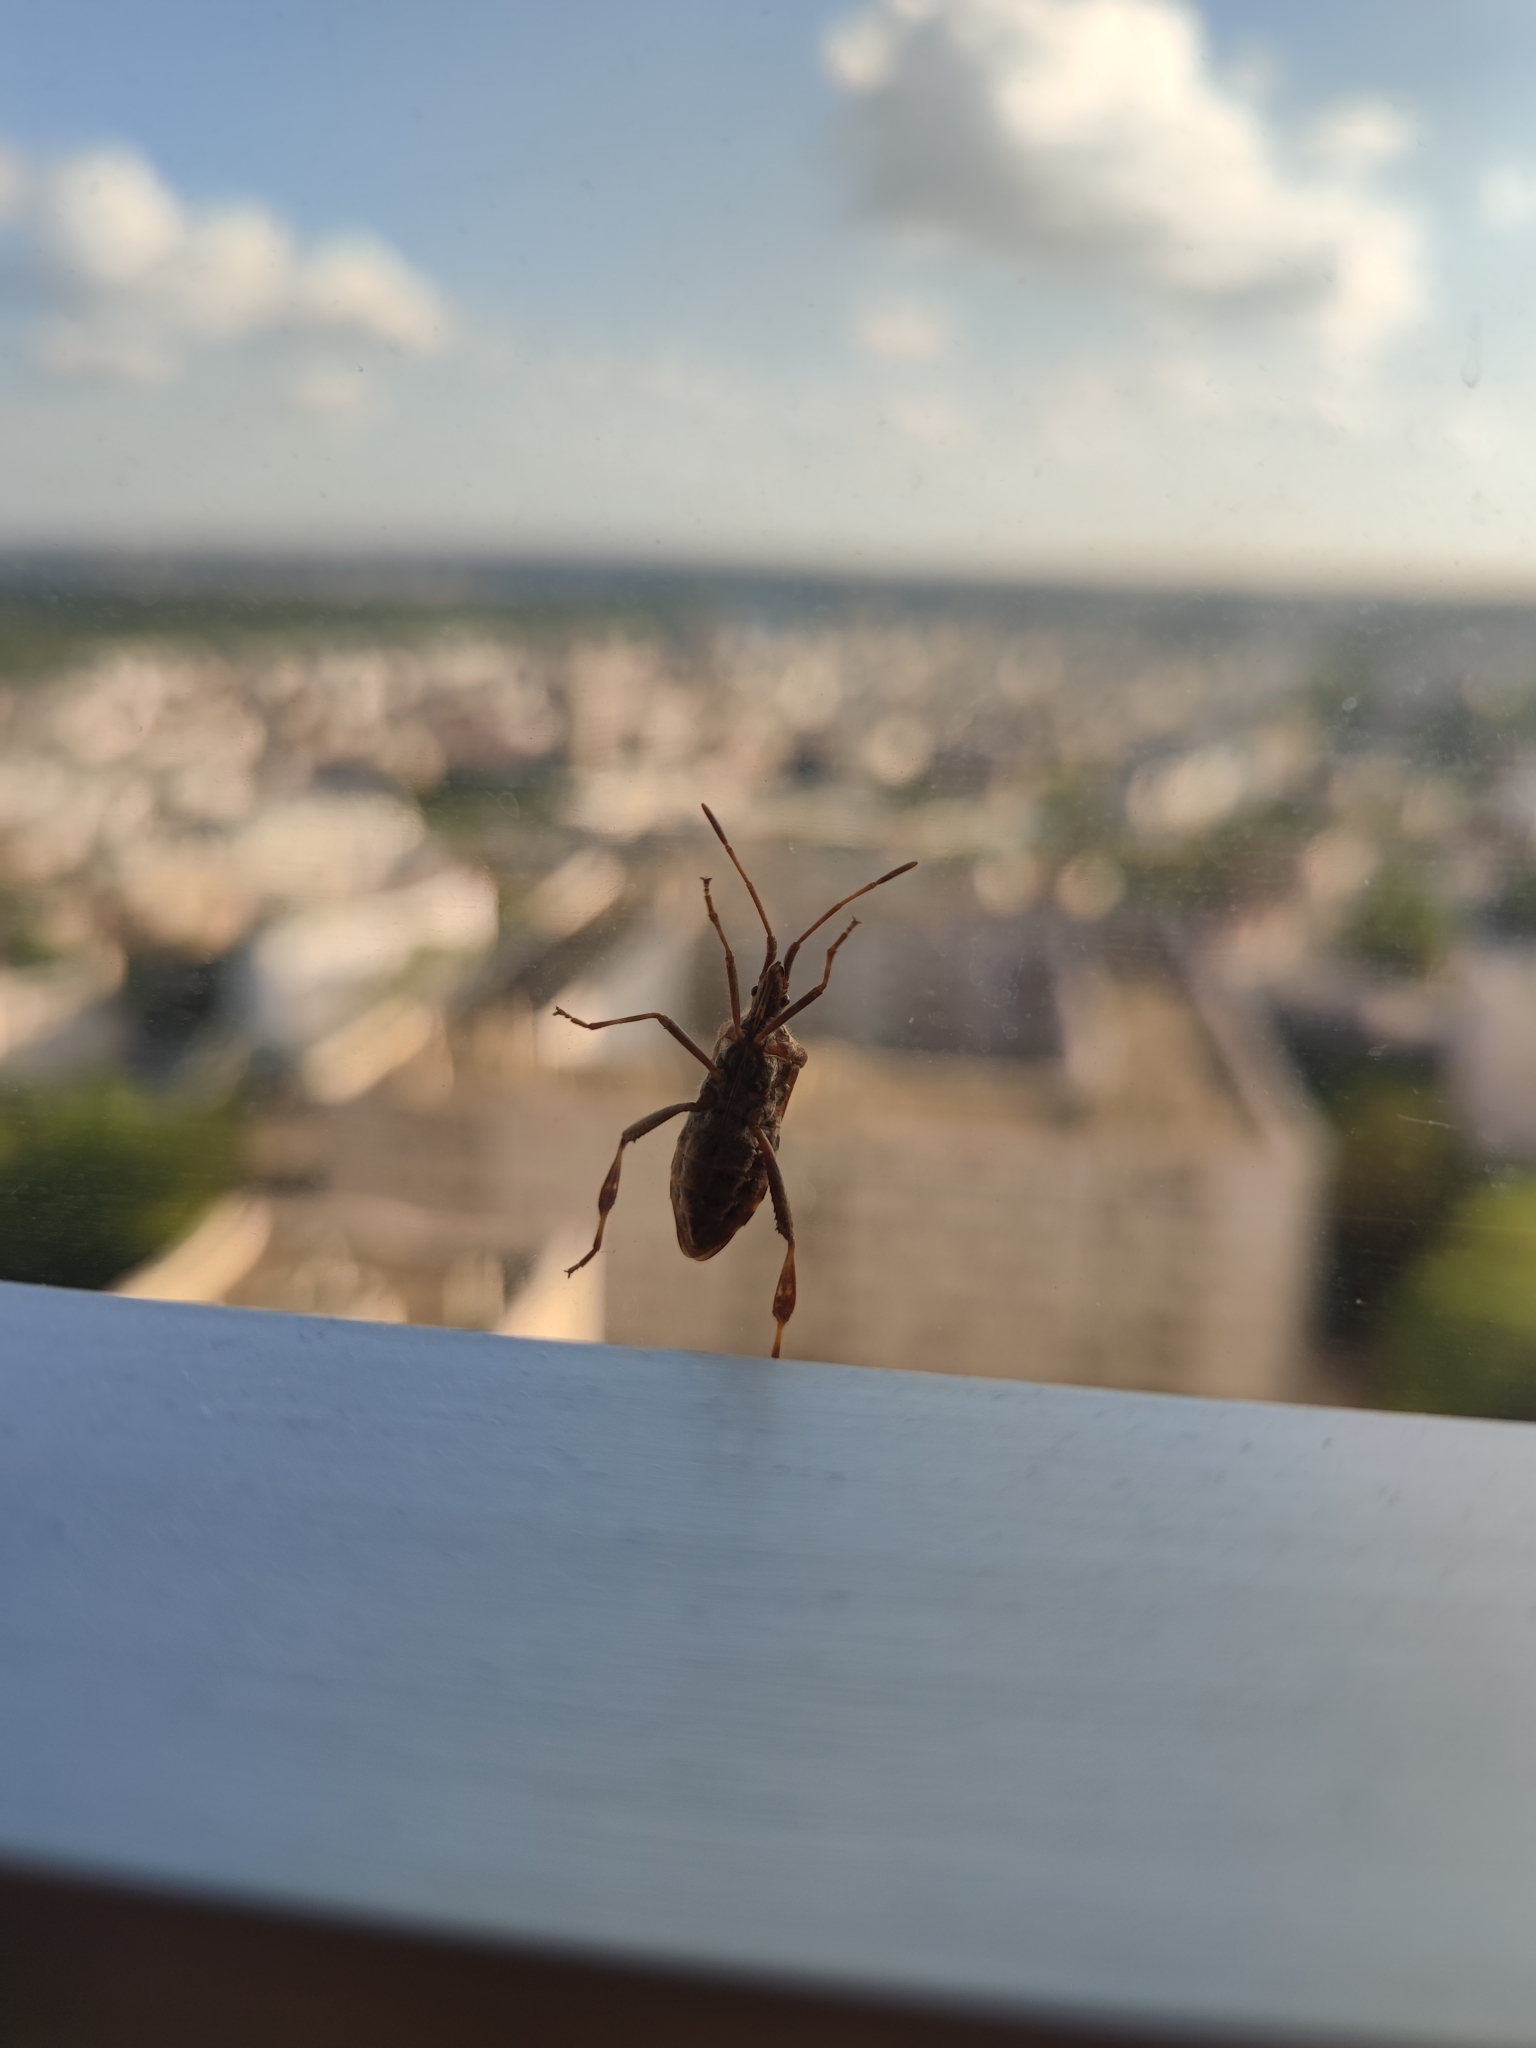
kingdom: Animalia
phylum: Arthropoda
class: Insecta
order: Hemiptera
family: Coreidae
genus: Leptoglossus
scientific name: Leptoglossus occidentalis
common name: Western conifer-seed bug
